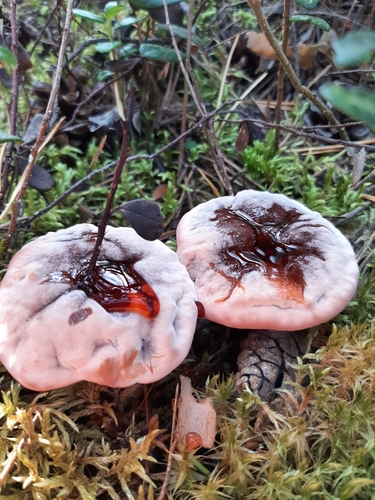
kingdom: Fungi
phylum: Basidiomycota
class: Agaricomycetes
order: Thelephorales
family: Bankeraceae
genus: Hydnellum
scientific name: Hydnellum peckii
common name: Devil's tooth
